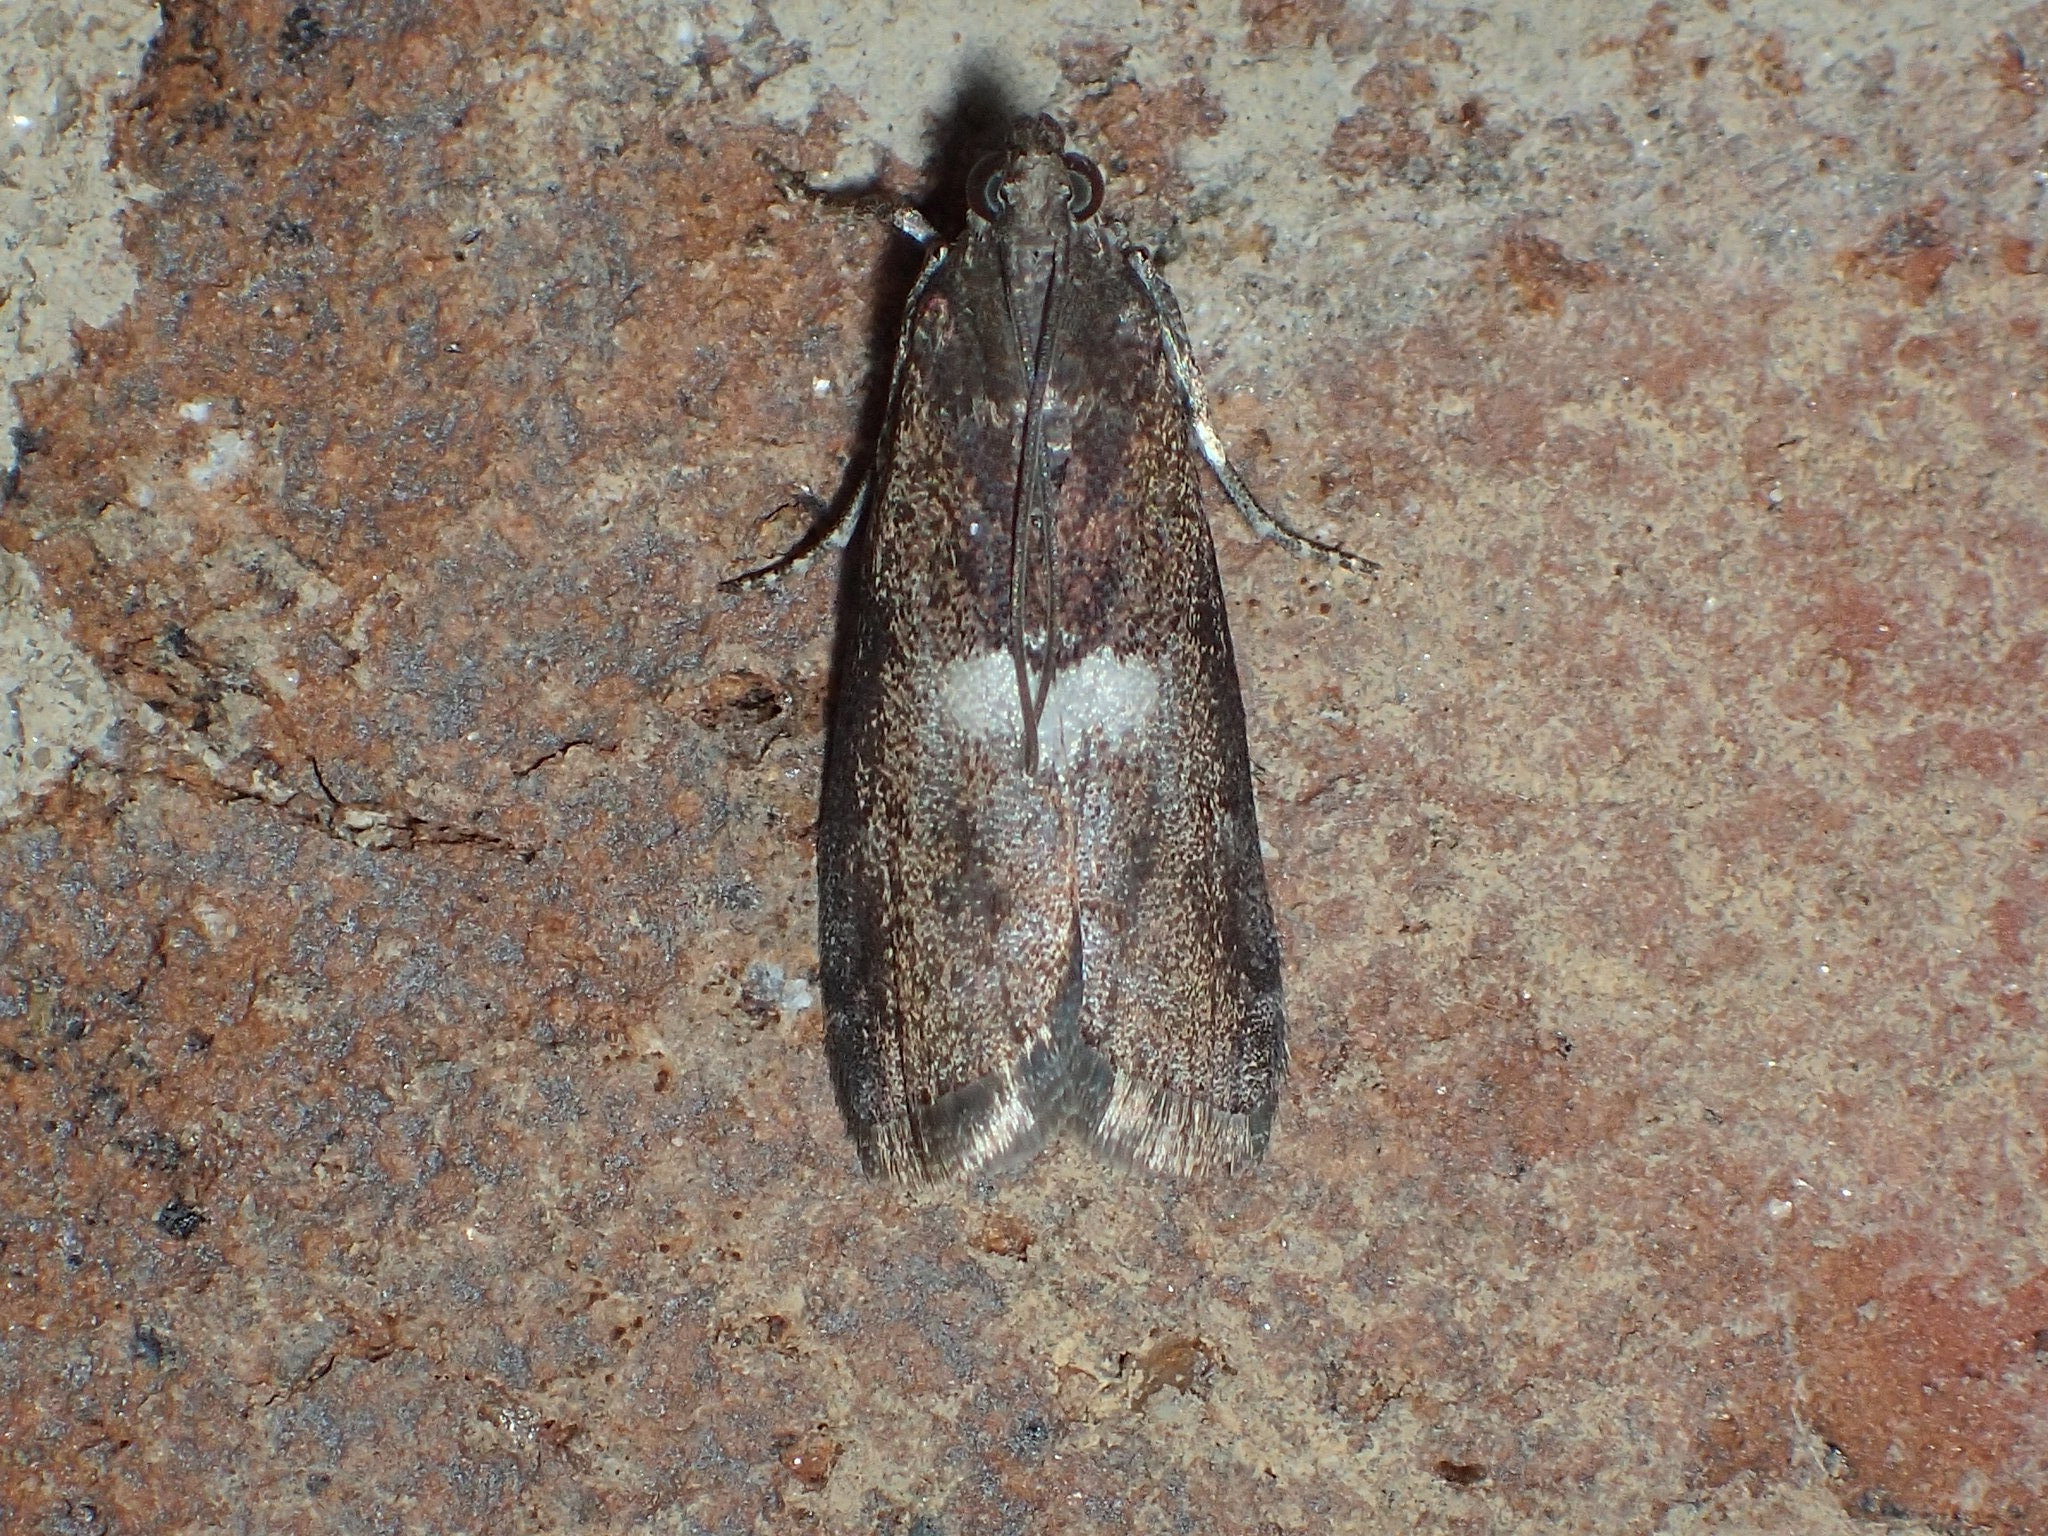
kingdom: Animalia
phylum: Arthropoda
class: Insecta
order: Lepidoptera
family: Pyralidae
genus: Salebriaria
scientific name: Salebriaria engeli
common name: Engel's salebriaria moth
